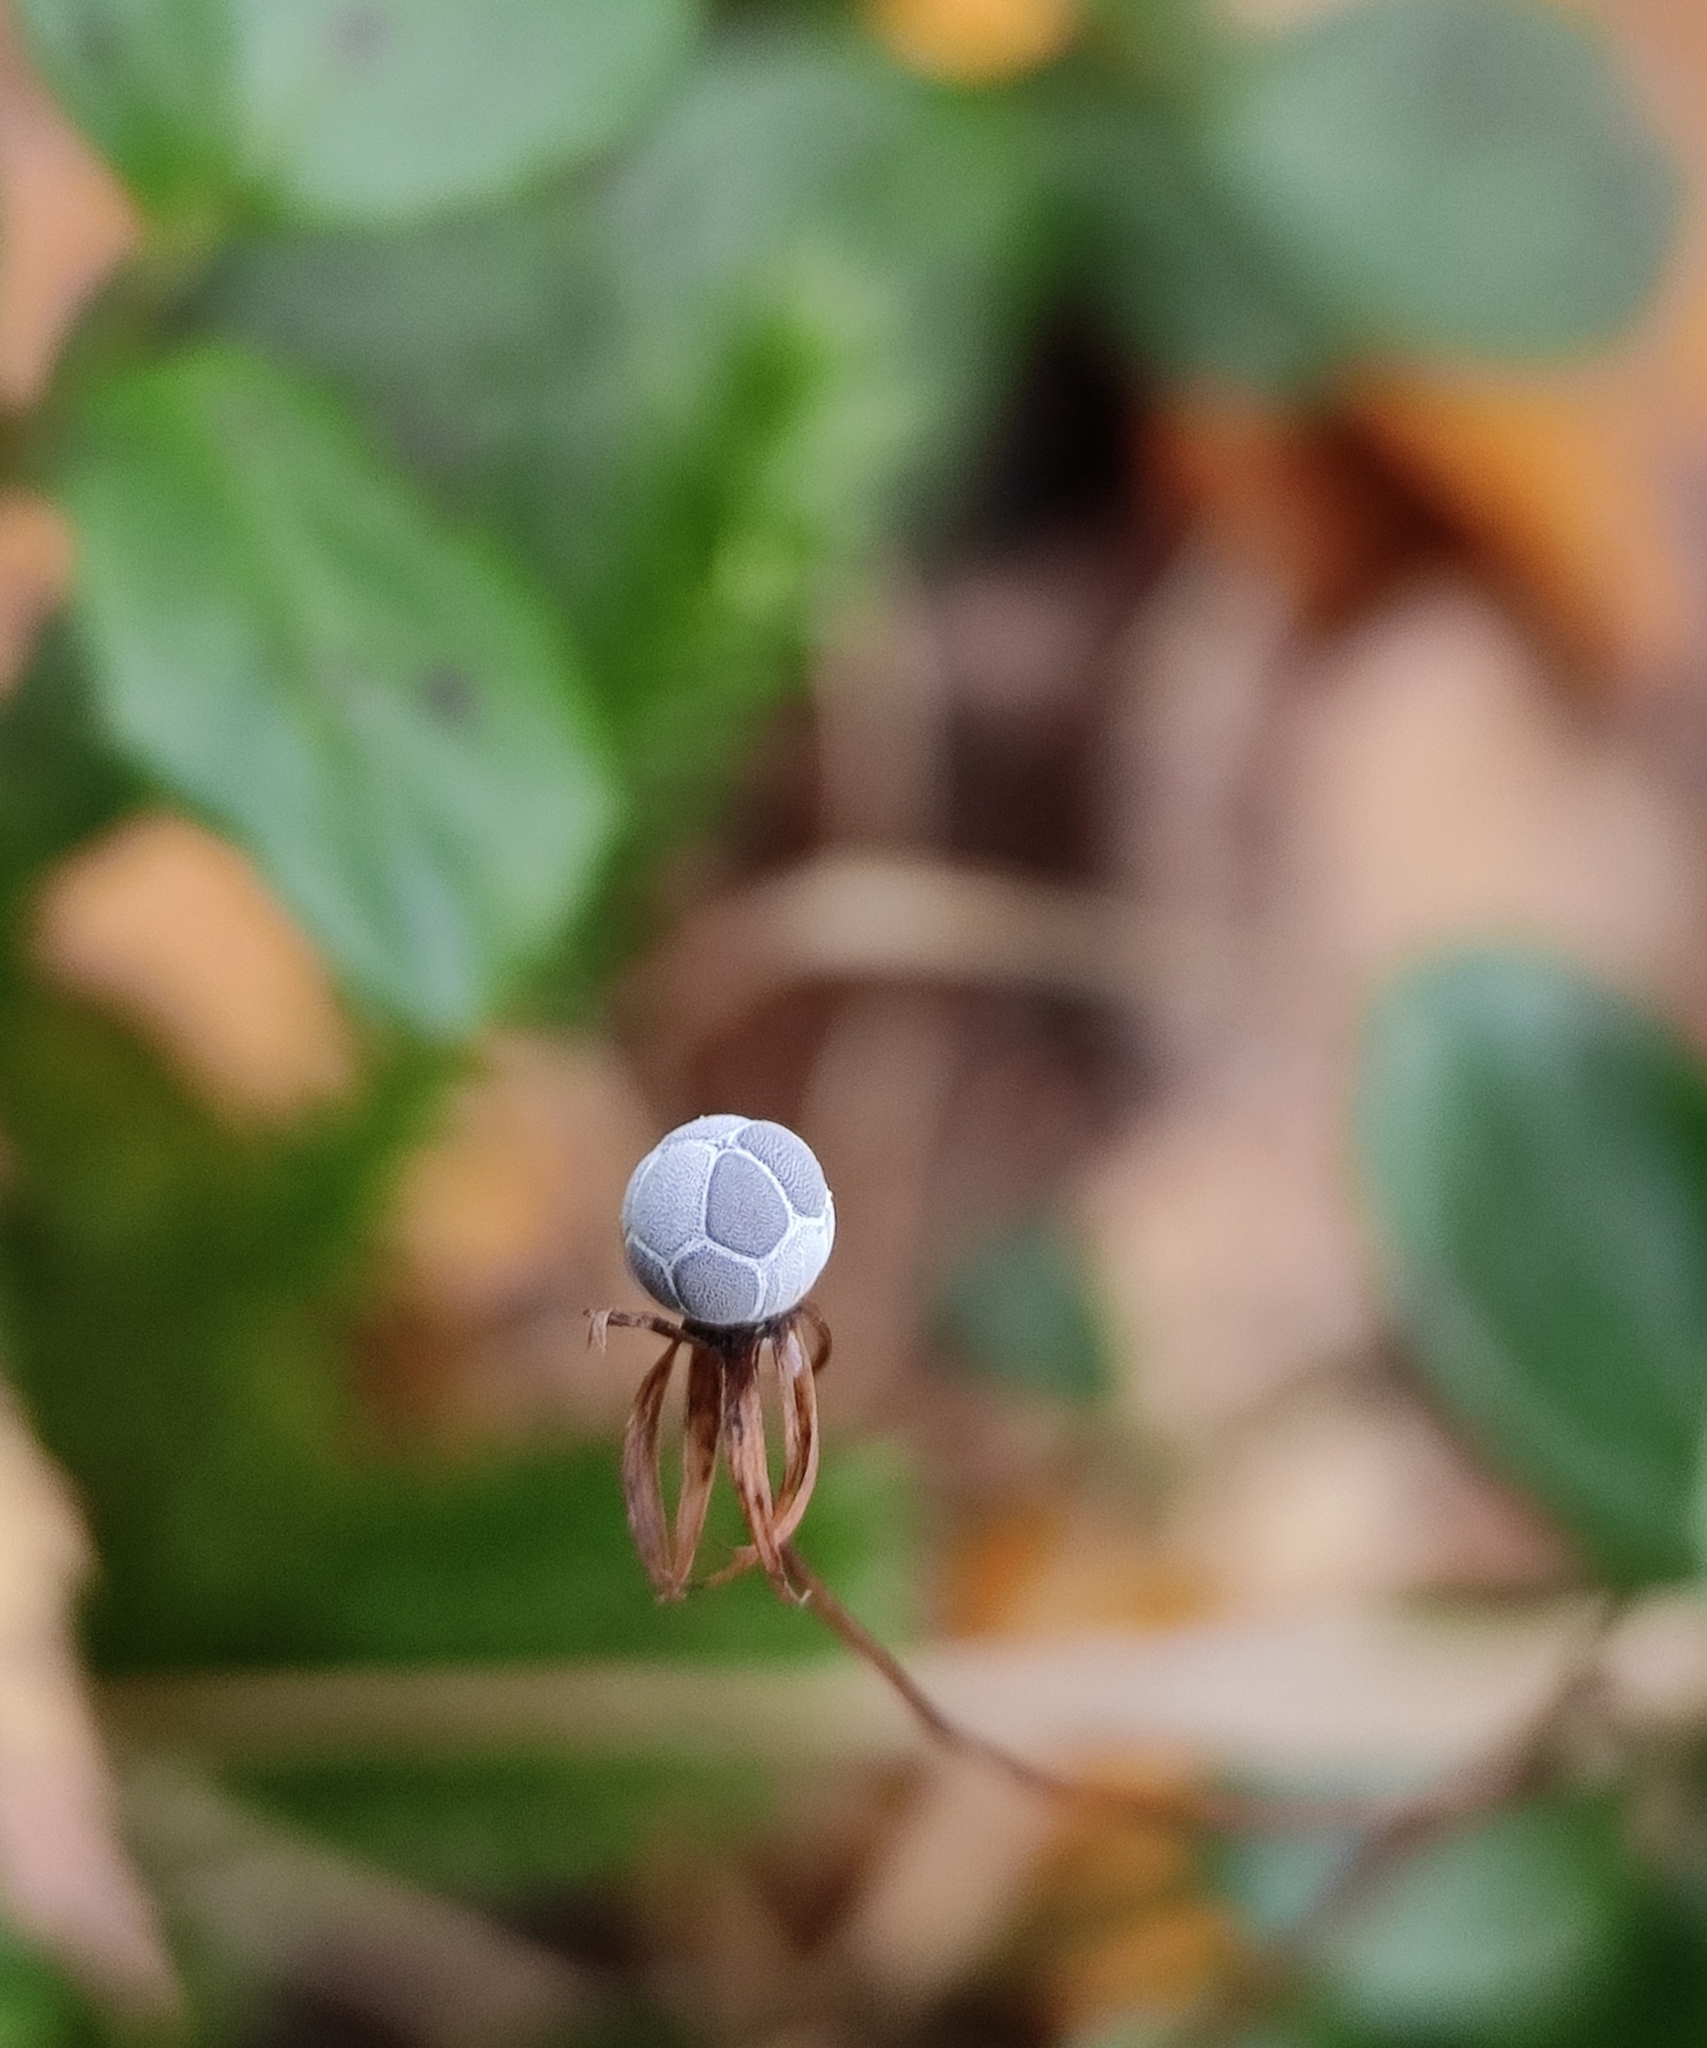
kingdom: Plantae
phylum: Tracheophyta
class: Magnoliopsida
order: Ericales
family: Primulaceae
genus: Lysimachia
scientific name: Lysimachia europaea
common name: Arctic starflower
